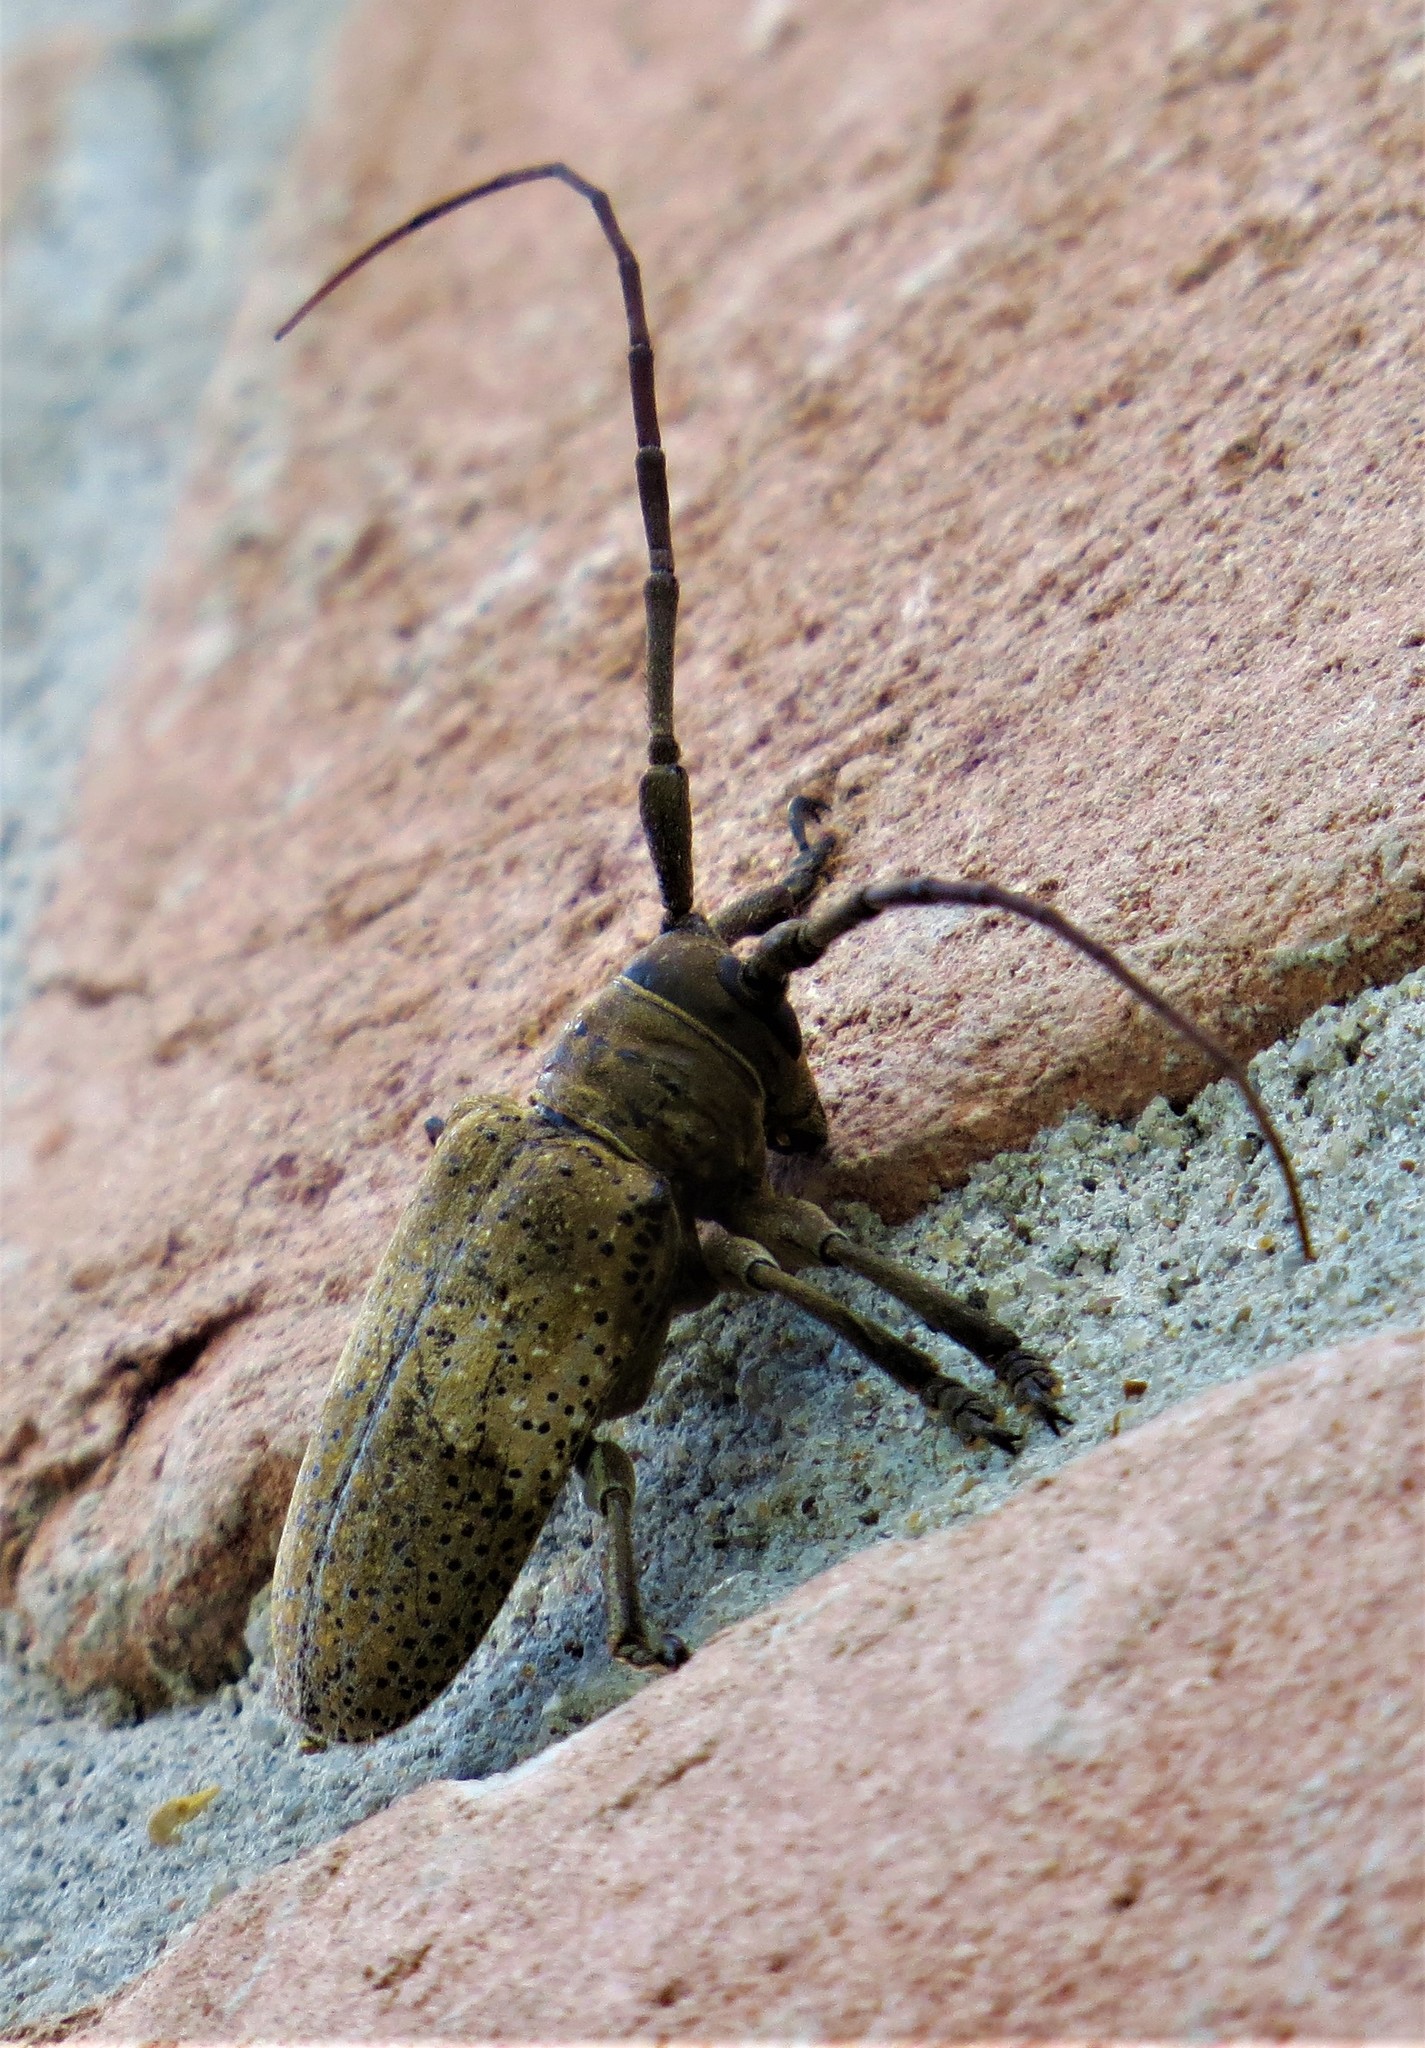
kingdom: Animalia
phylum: Arthropoda
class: Insecta
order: Coleoptera
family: Cerambycidae
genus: Oncideres
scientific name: Oncideres pustulata
